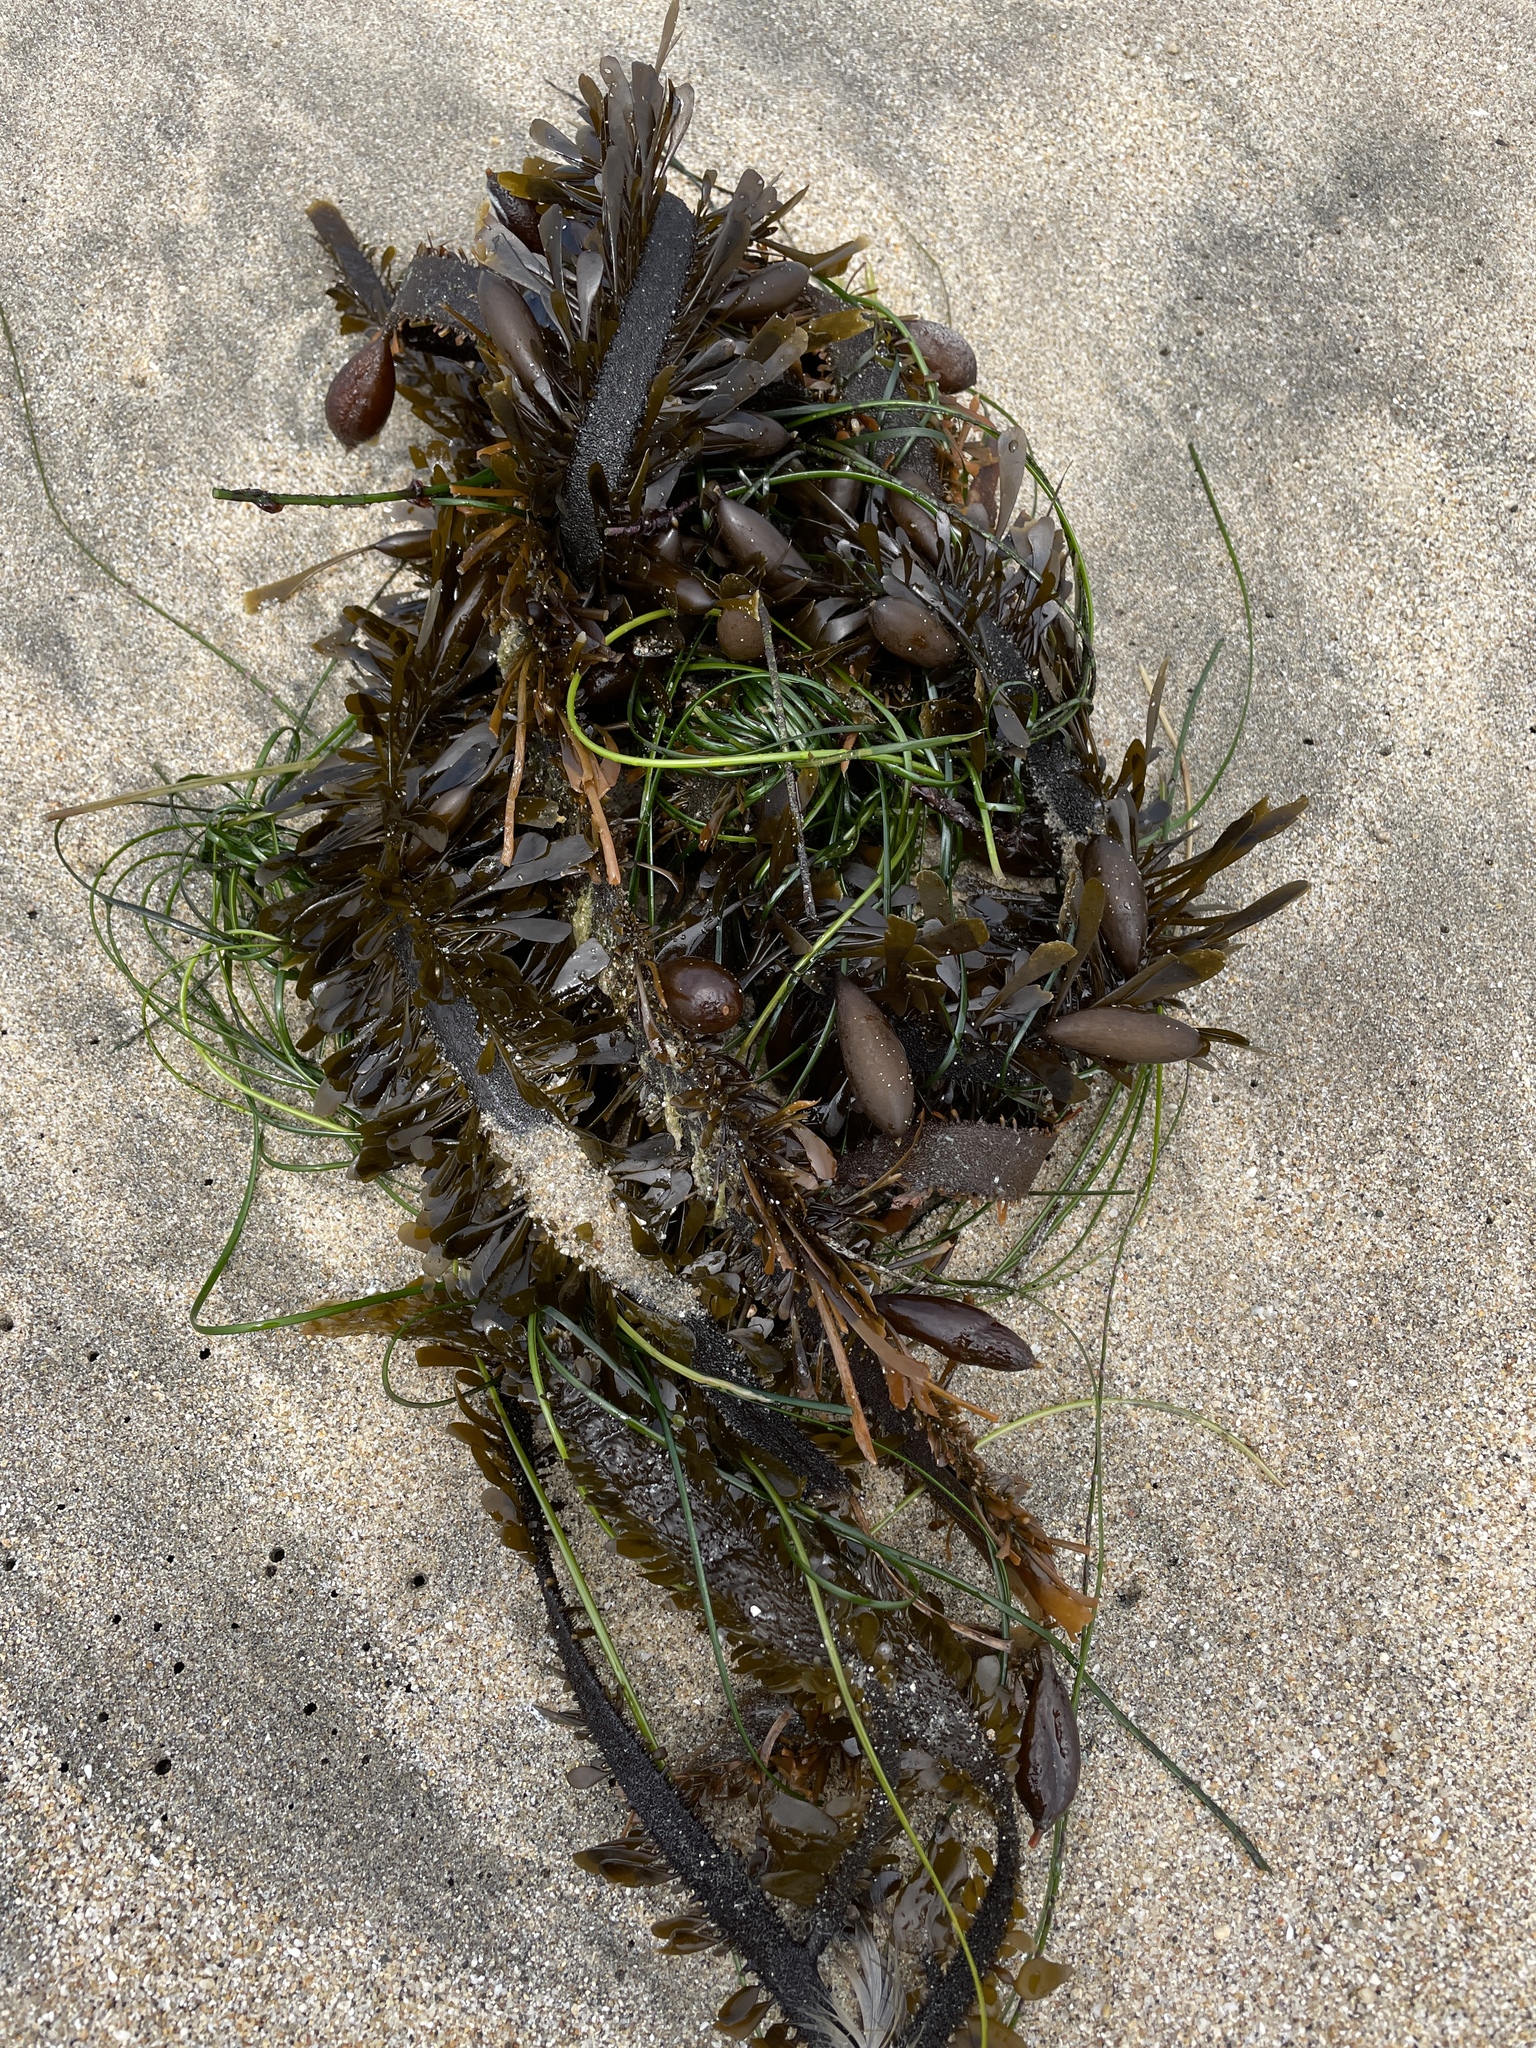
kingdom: Chromista
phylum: Ochrophyta
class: Phaeophyceae
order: Laminariales
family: Lessoniaceae
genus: Egregia
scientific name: Egregia menziesii
